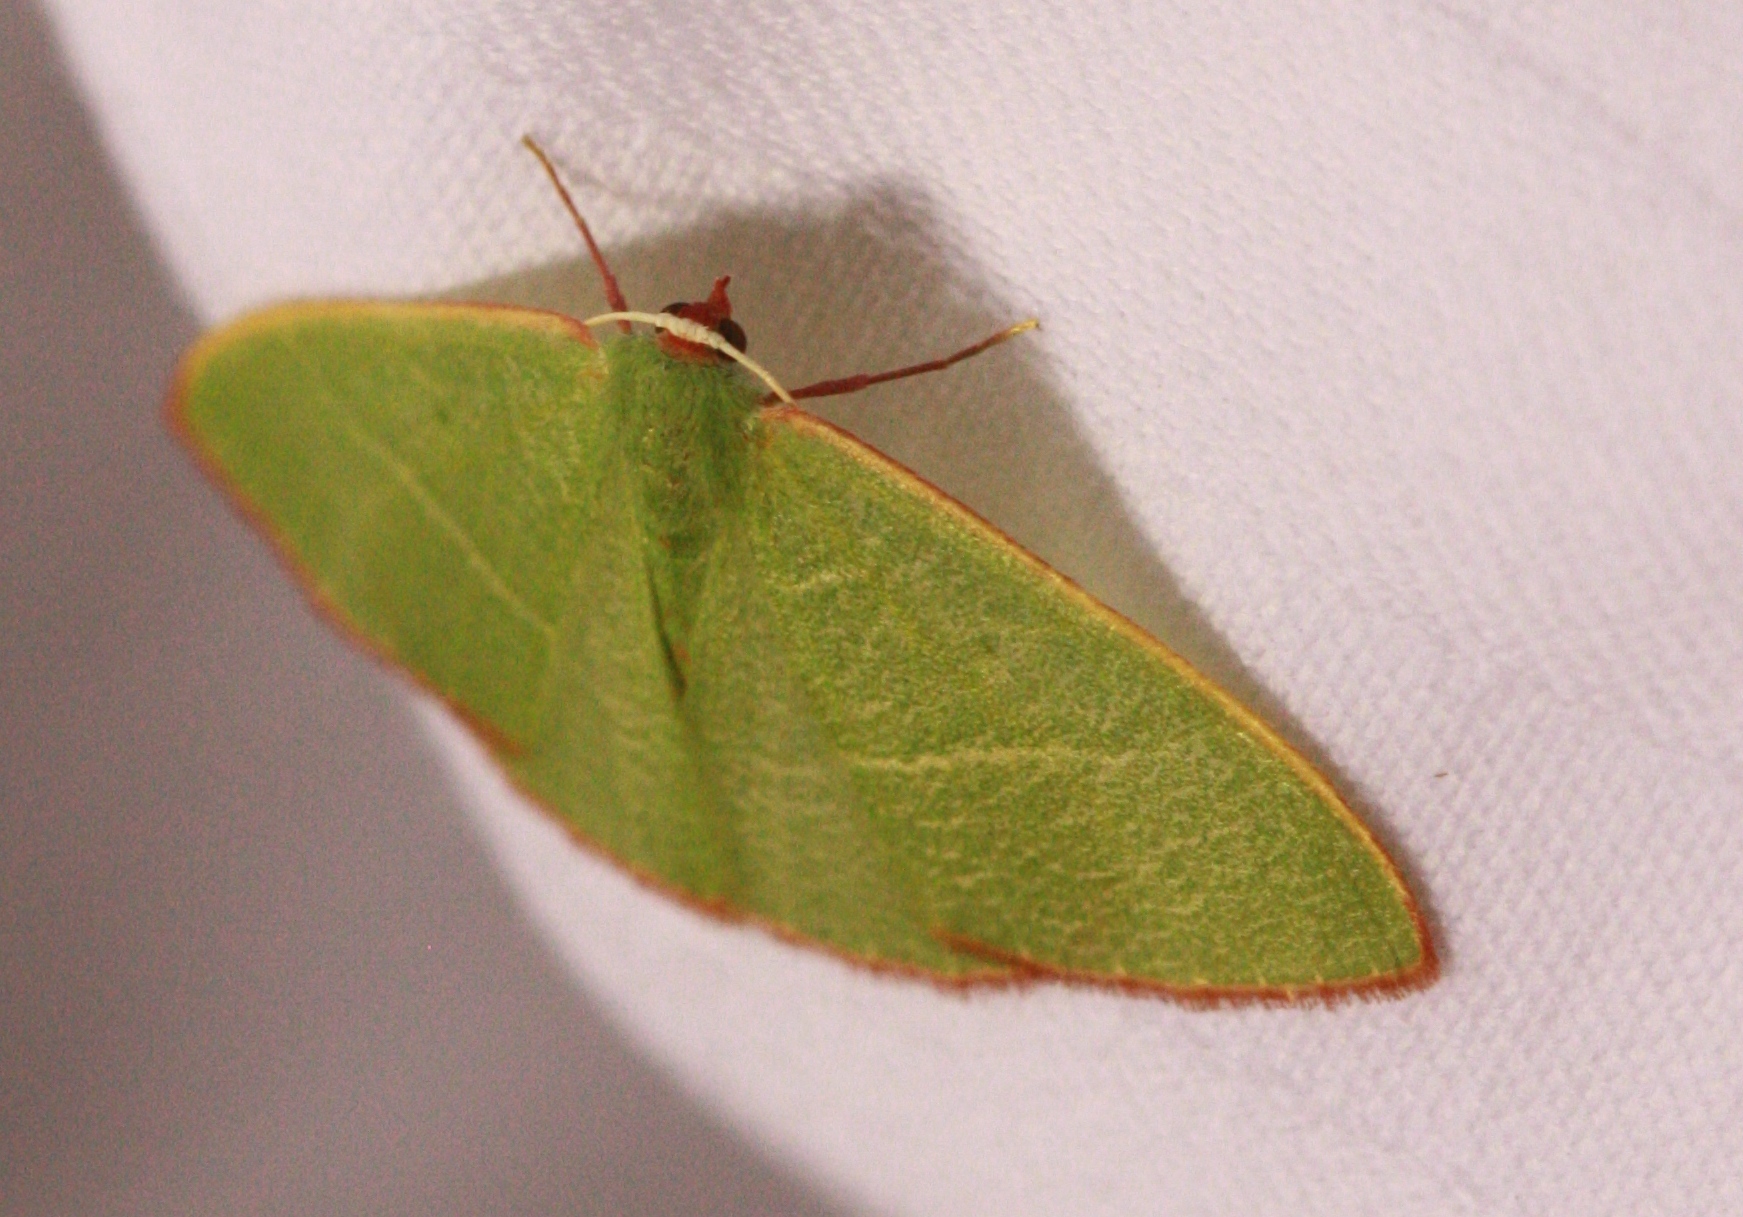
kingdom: Animalia
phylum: Arthropoda
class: Insecta
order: Lepidoptera
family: Geometridae
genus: Nemoria
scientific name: Nemoria leptalea
